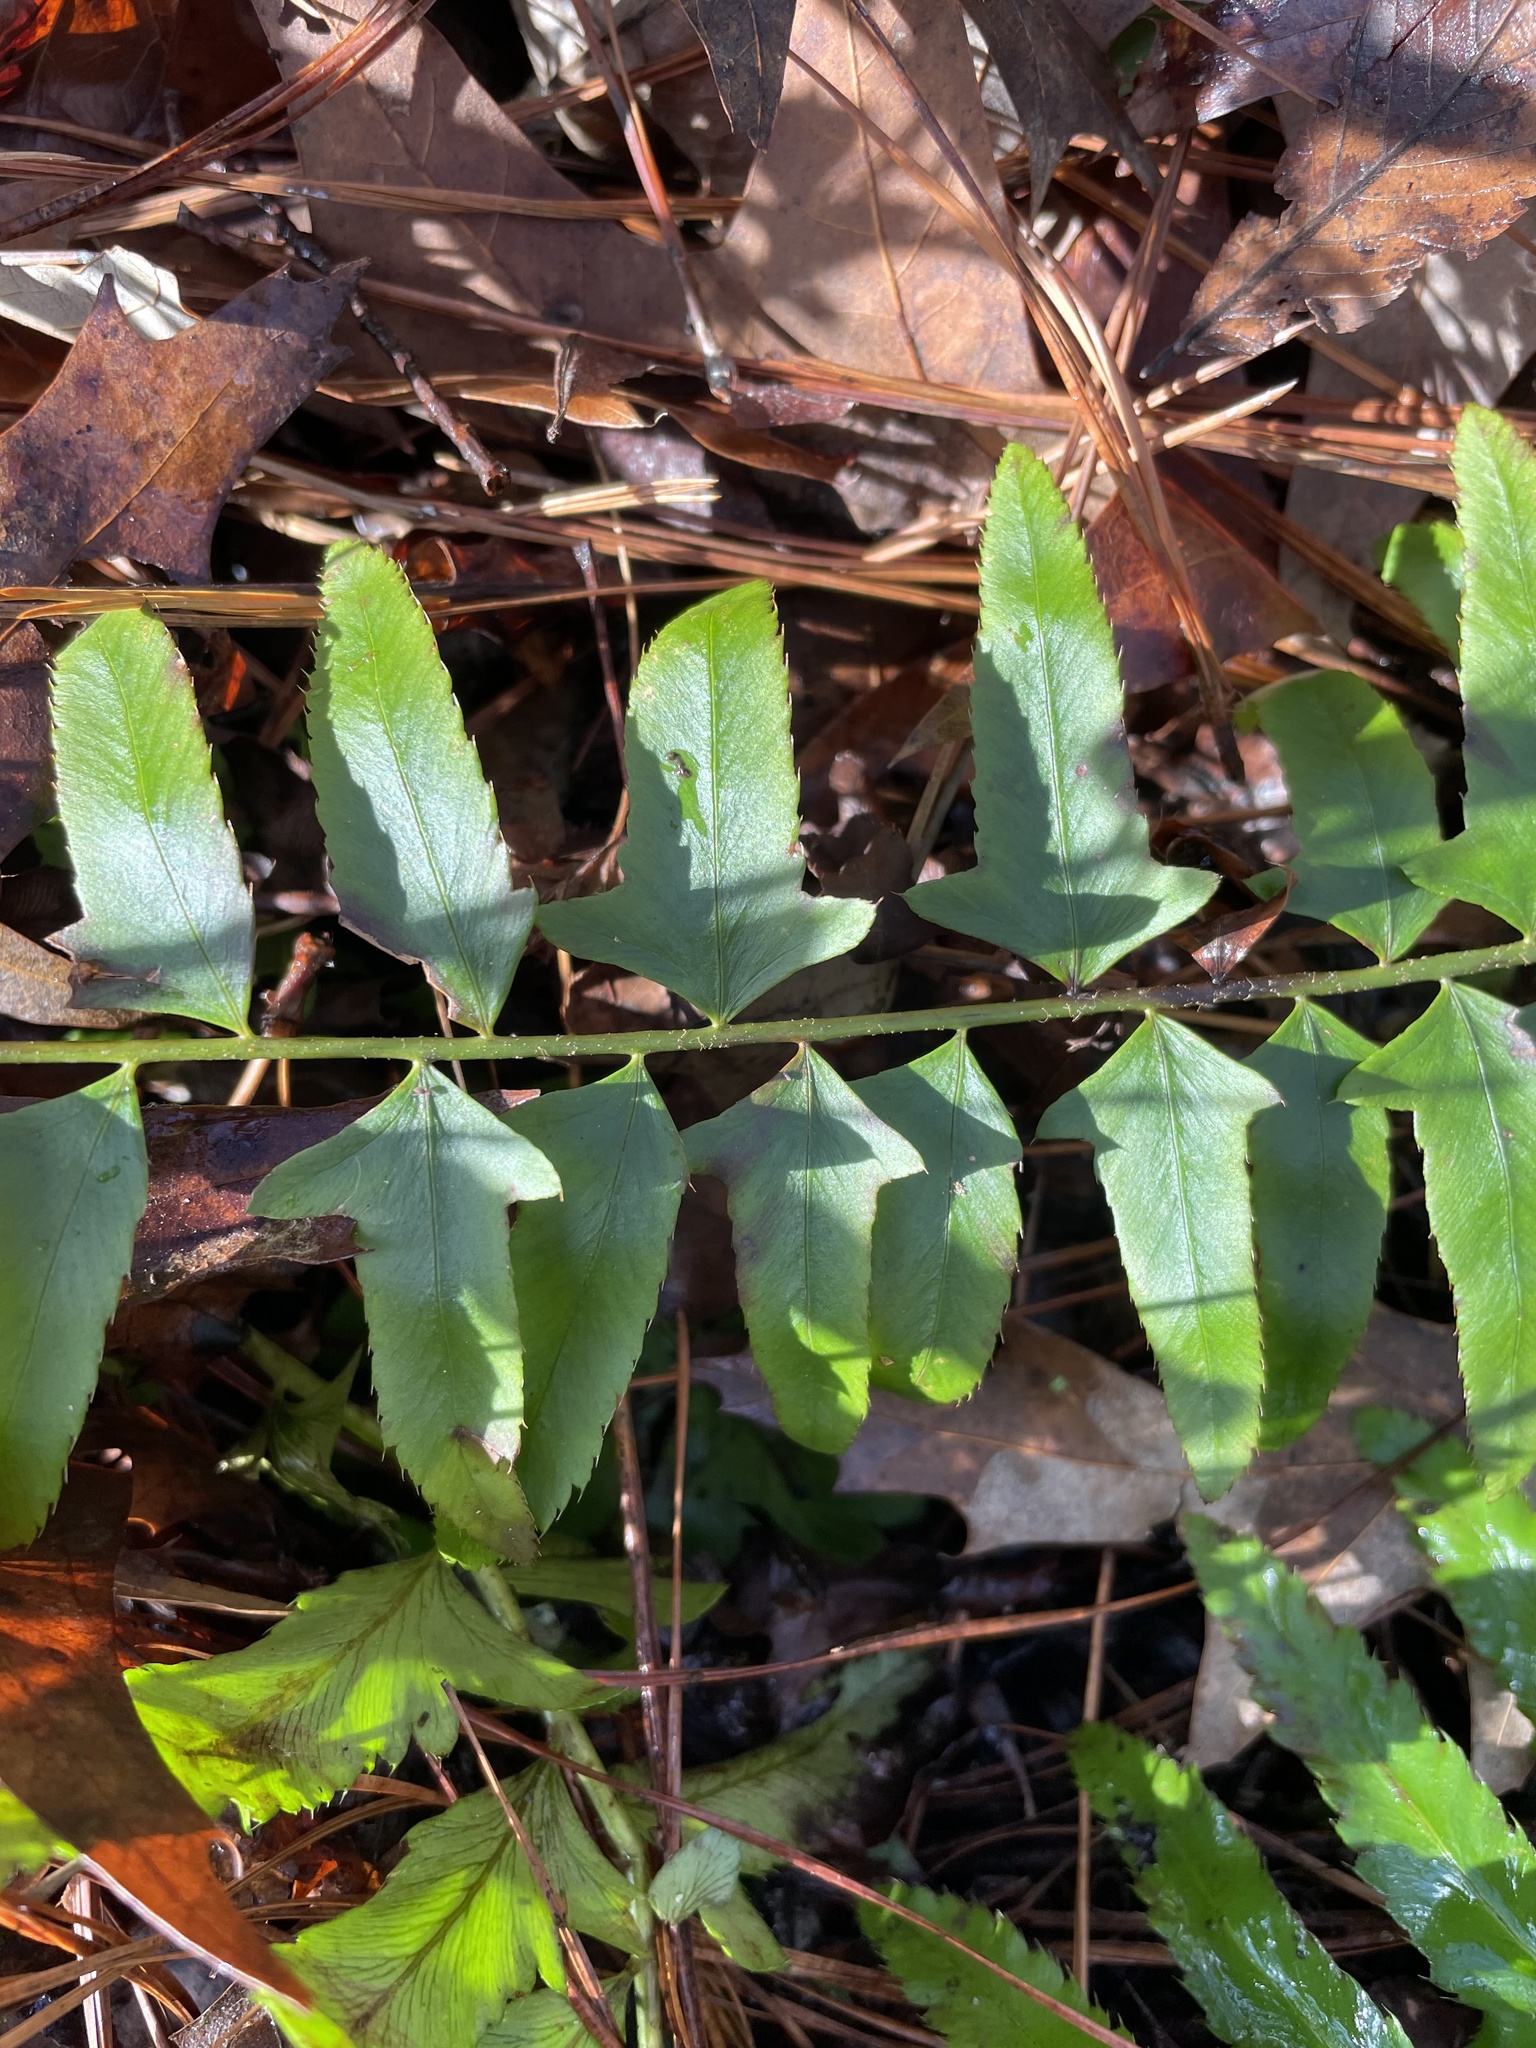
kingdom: Plantae
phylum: Tracheophyta
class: Polypodiopsida
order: Polypodiales
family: Dryopteridaceae
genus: Polystichum
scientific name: Polystichum acrostichoides
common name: Christmas fern
